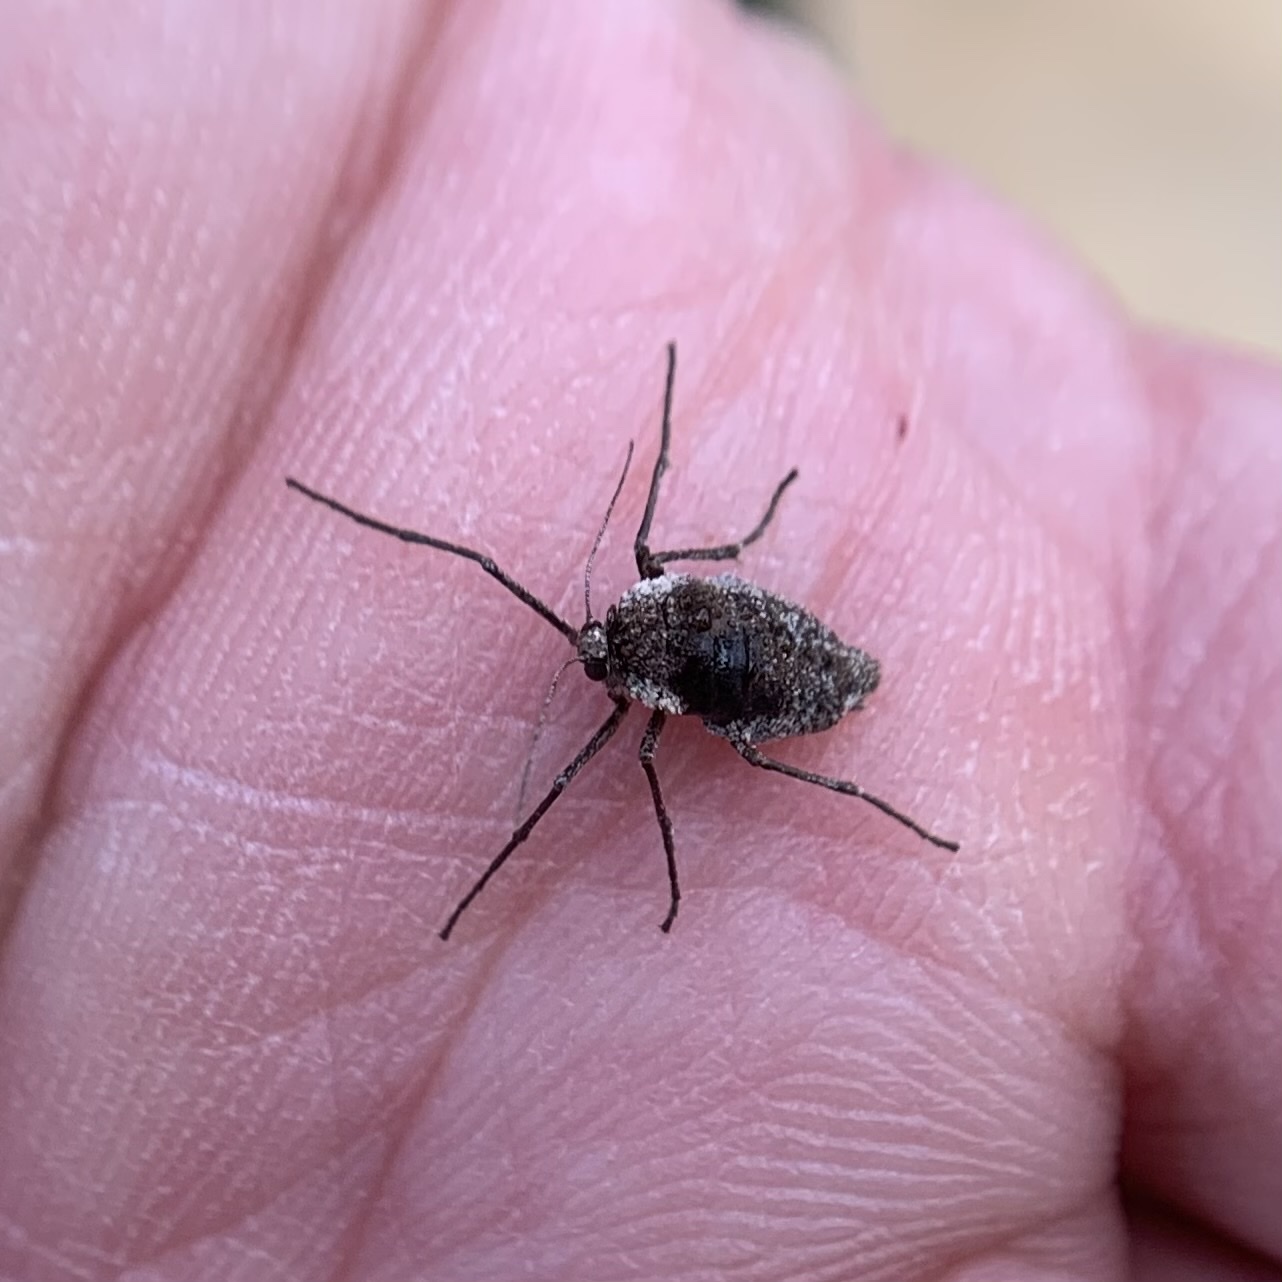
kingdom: Animalia
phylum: Arthropoda
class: Insecta
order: Lepidoptera
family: Geometridae
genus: Alsophila
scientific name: Alsophila pometaria
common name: Fall cankerworm
